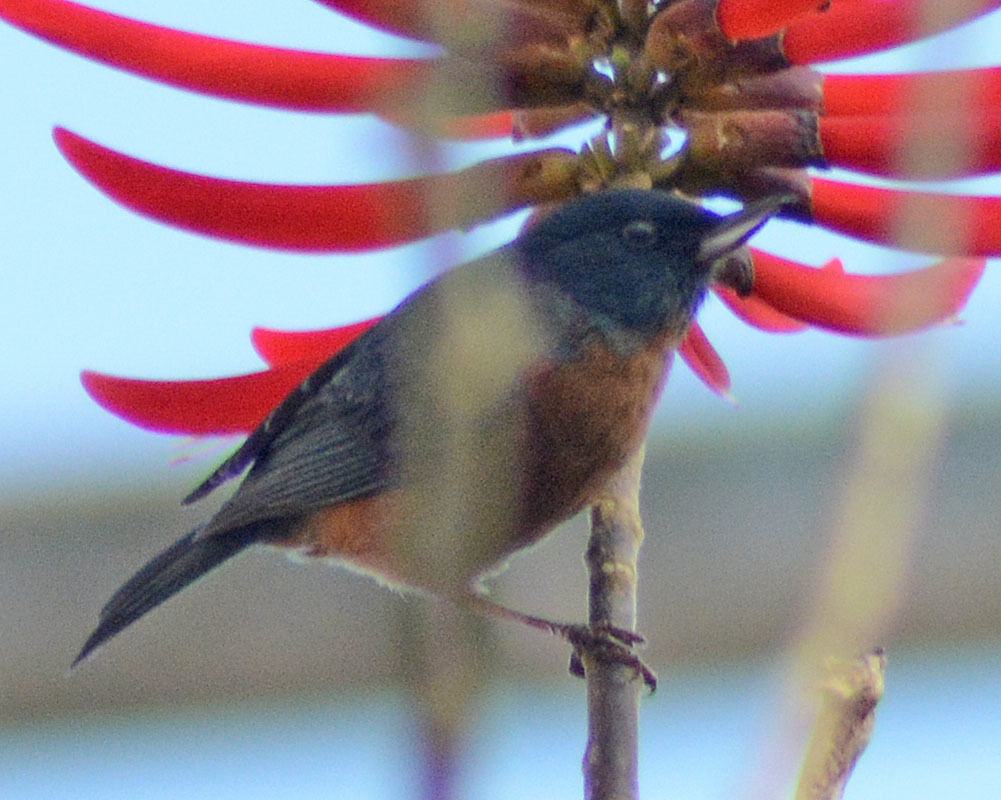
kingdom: Animalia
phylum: Chordata
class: Aves
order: Passeriformes
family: Thraupidae
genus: Diglossa
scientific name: Diglossa baritula
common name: Cinnamon-bellied flowerpiercer
